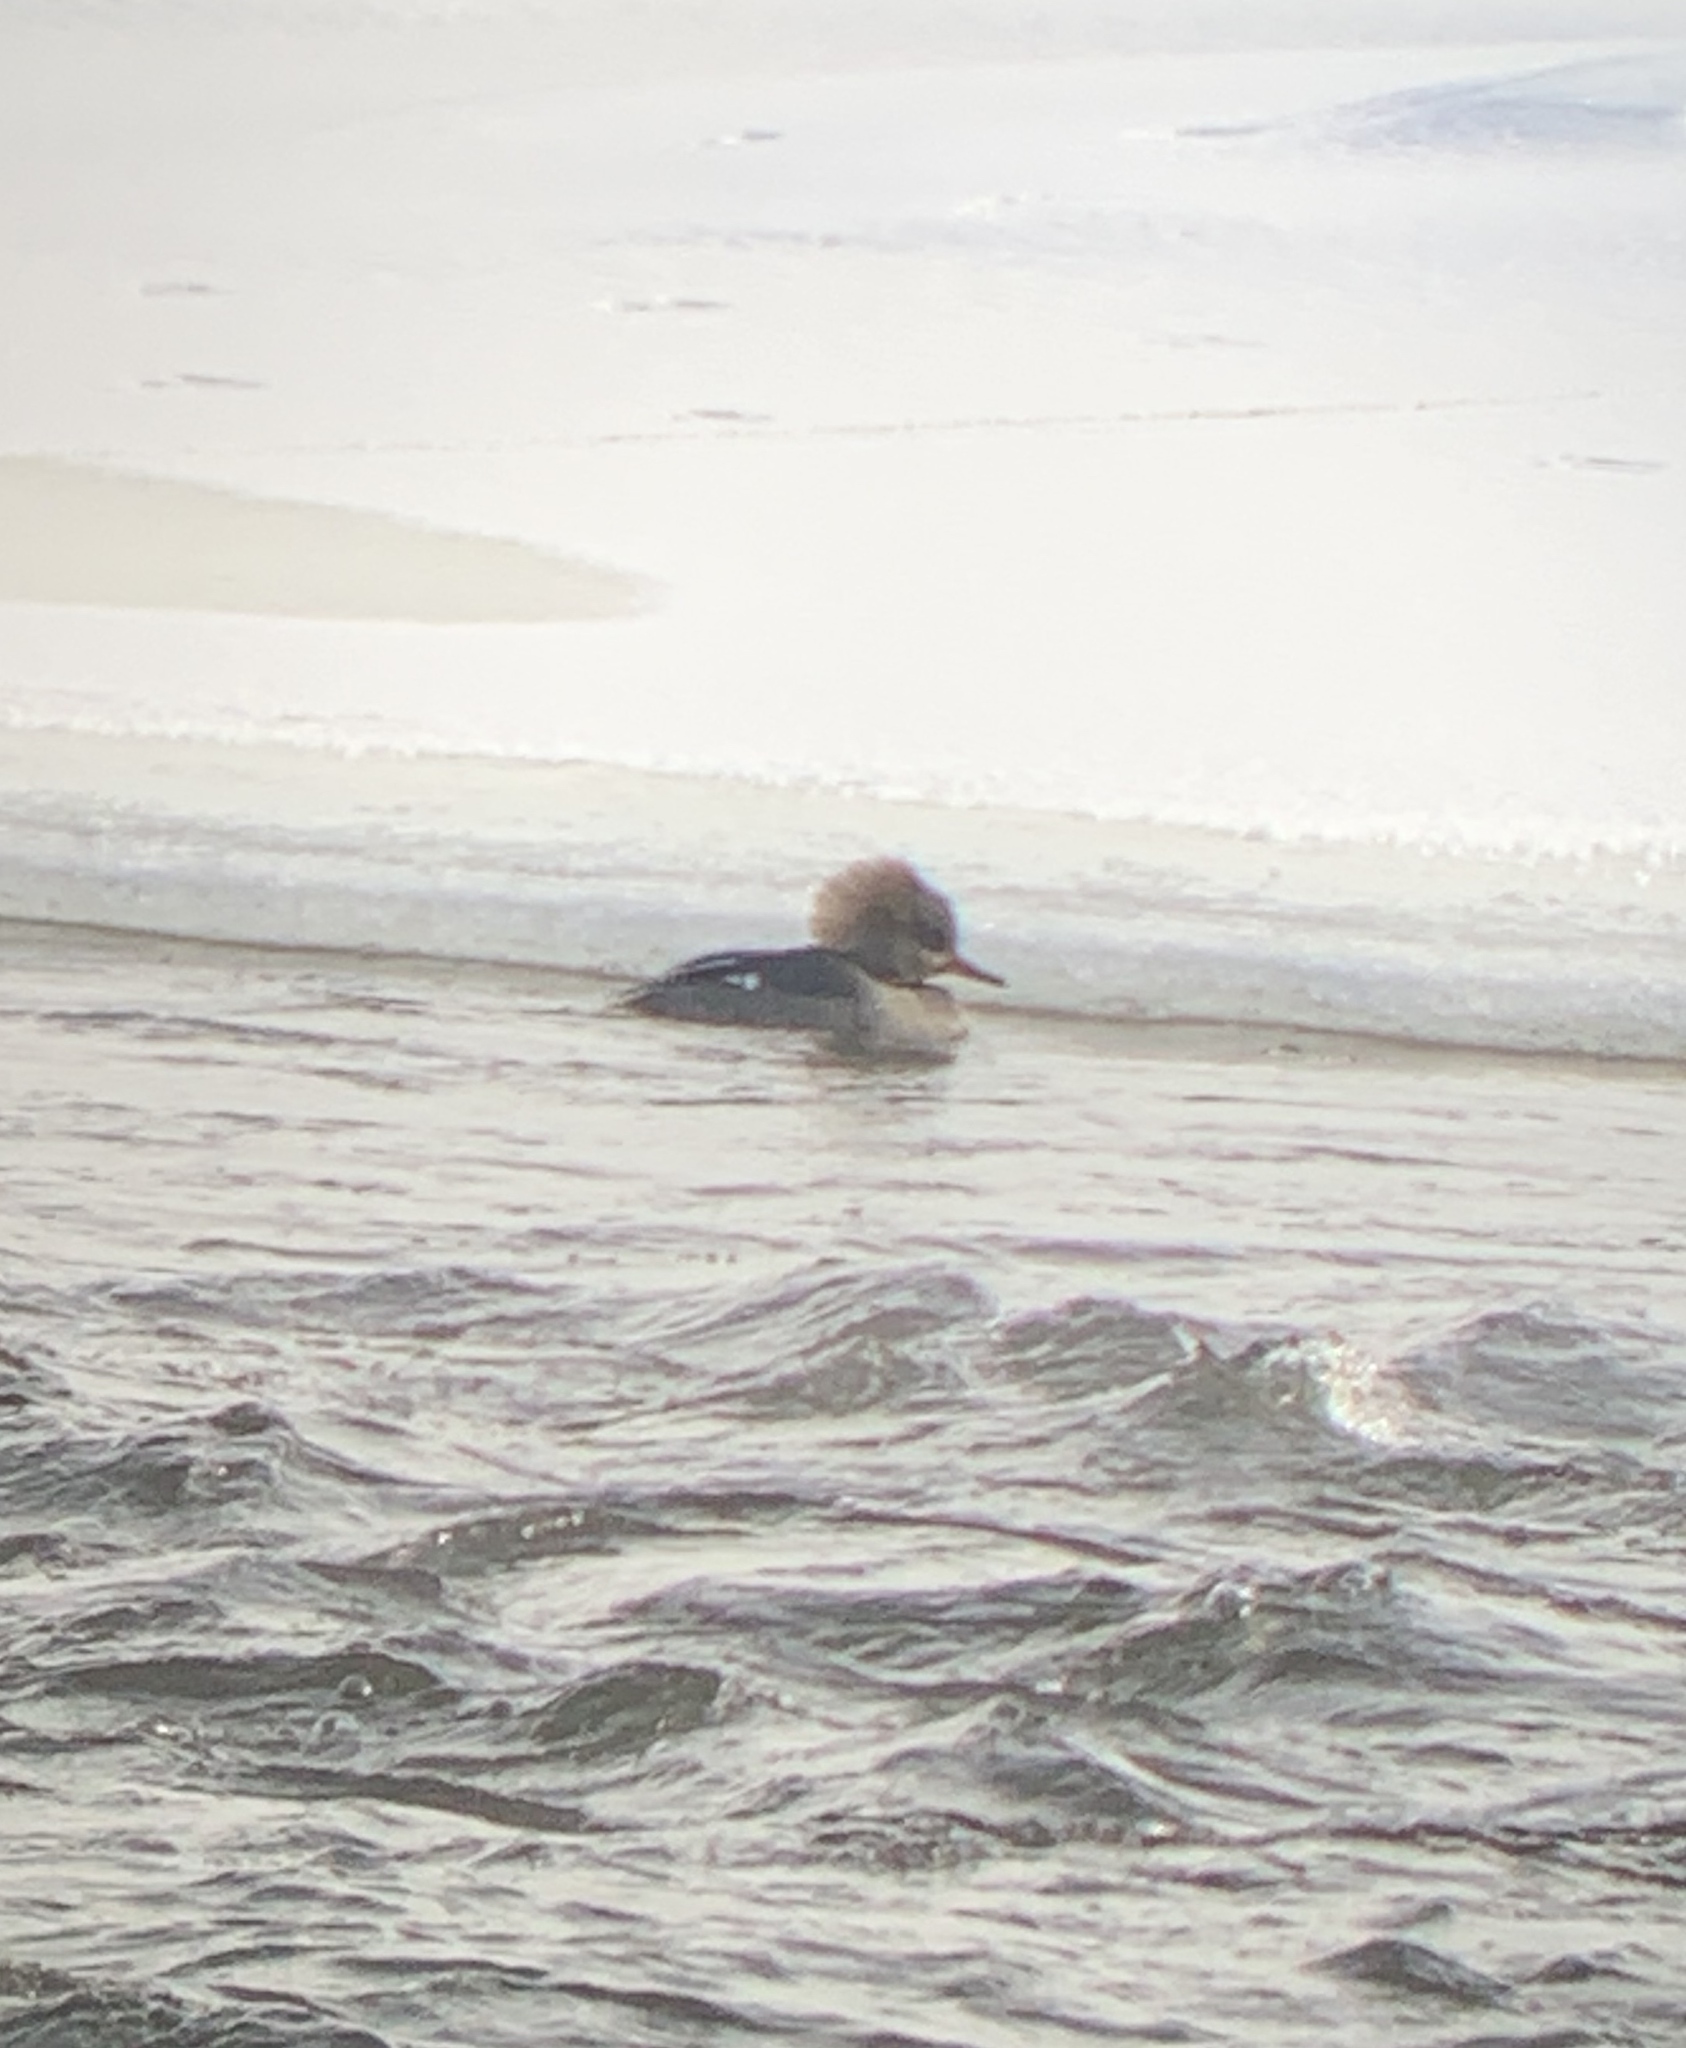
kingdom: Animalia
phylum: Chordata
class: Aves
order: Anseriformes
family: Anatidae
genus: Lophodytes
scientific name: Lophodytes cucullatus
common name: Hooded merganser
